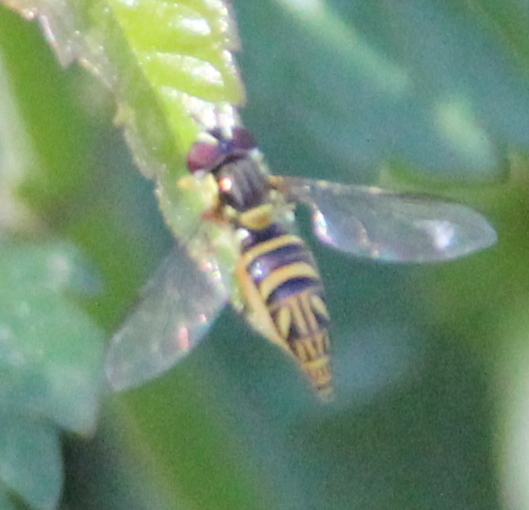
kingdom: Animalia
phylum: Arthropoda
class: Insecta
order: Diptera
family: Syrphidae
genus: Allograpta
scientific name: Allograpta obliqua
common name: Common oblique syrphid
